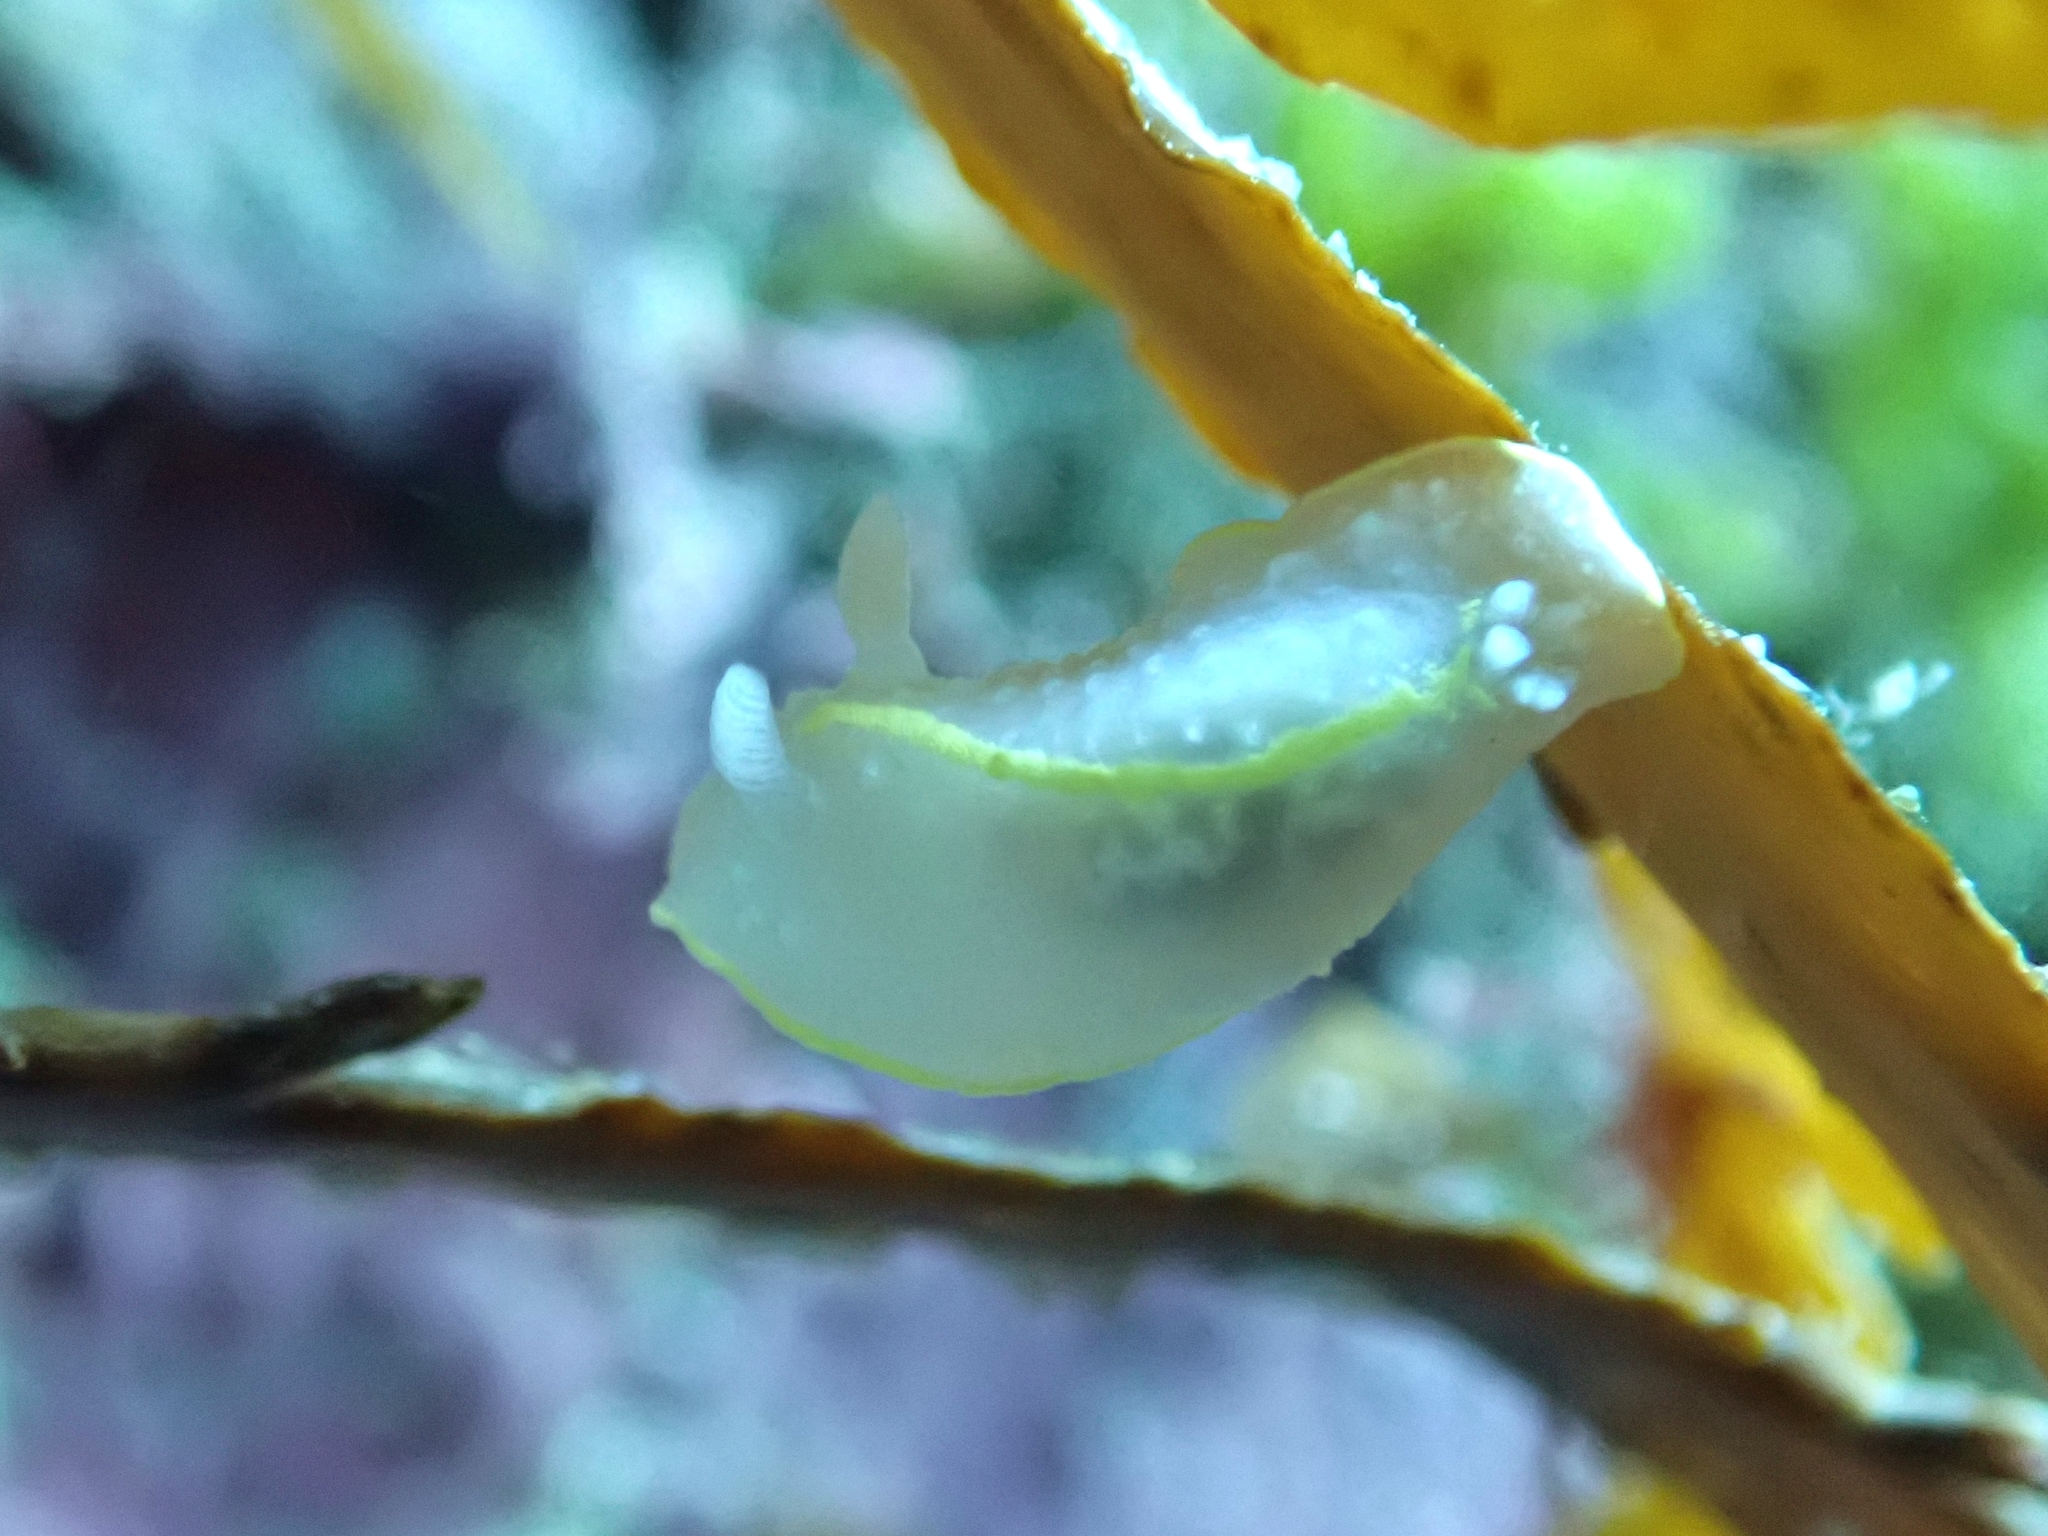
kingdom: Animalia
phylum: Mollusca
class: Gastropoda
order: Nudibranchia
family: Cadlinidae
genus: Cadlina
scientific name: Cadlina willani
